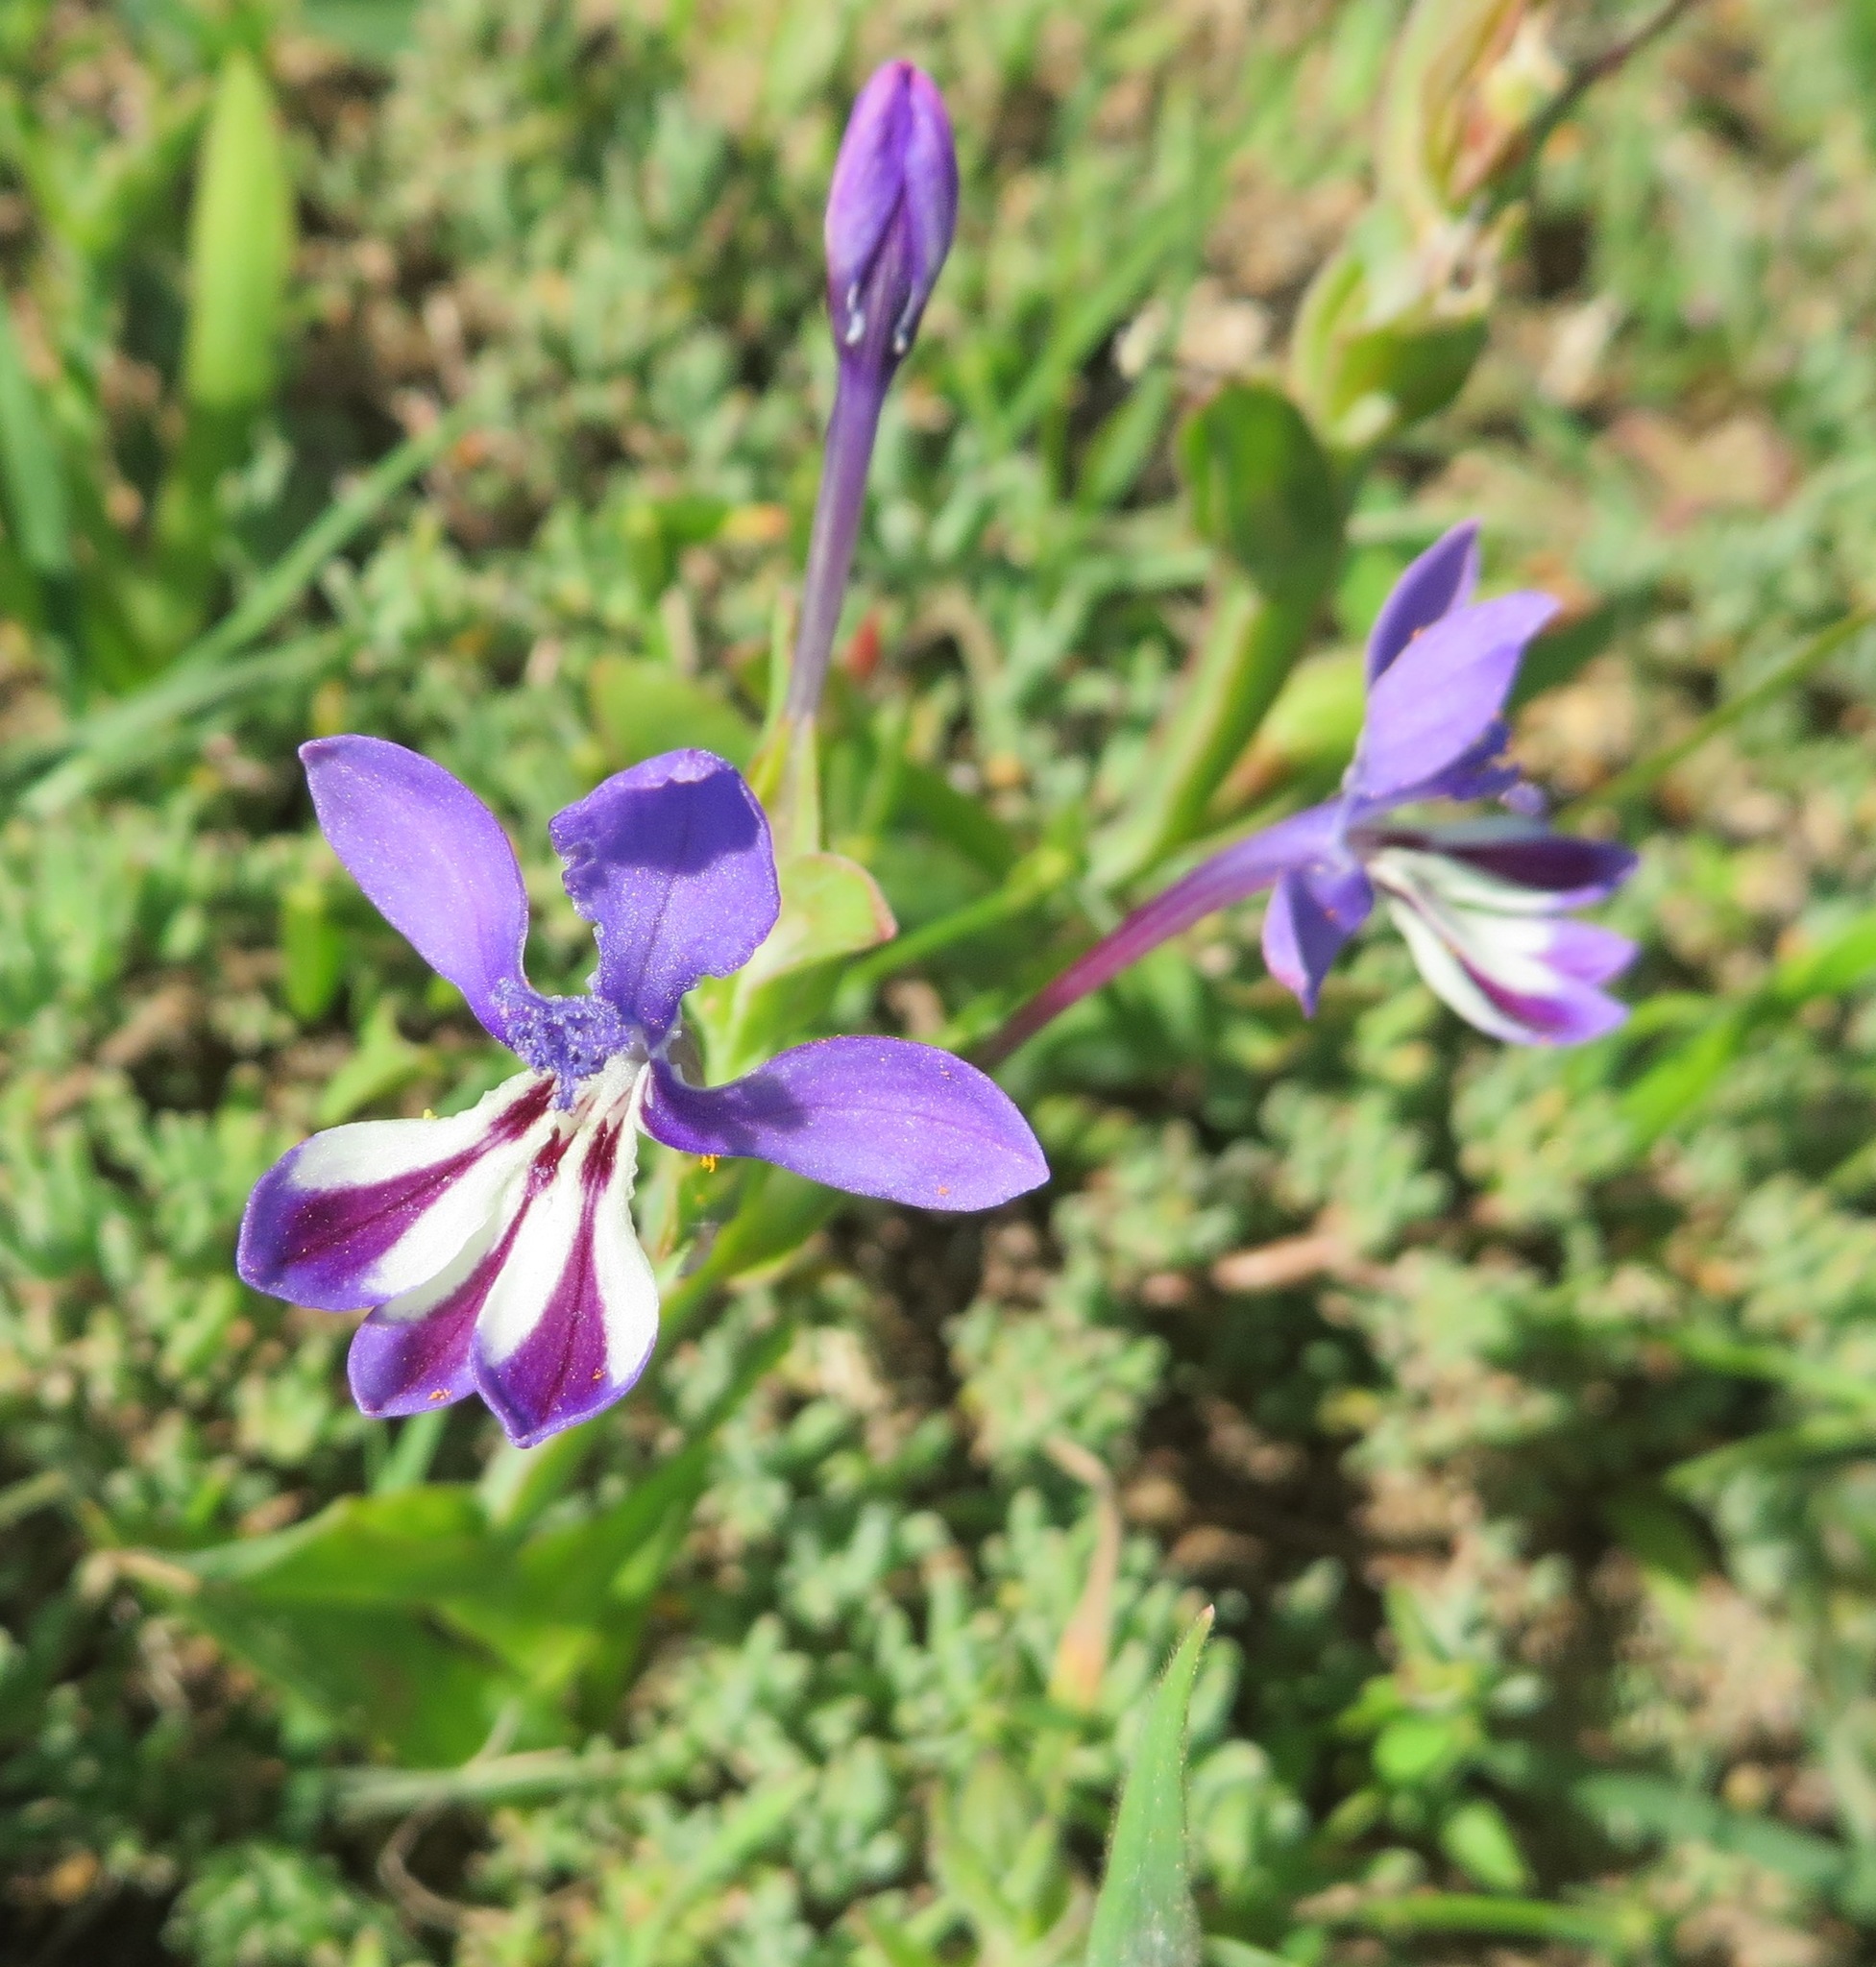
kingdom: Plantae
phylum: Tracheophyta
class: Liliopsida
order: Asparagales
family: Iridaceae
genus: Lapeirousia
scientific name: Lapeirousia jacquinii
